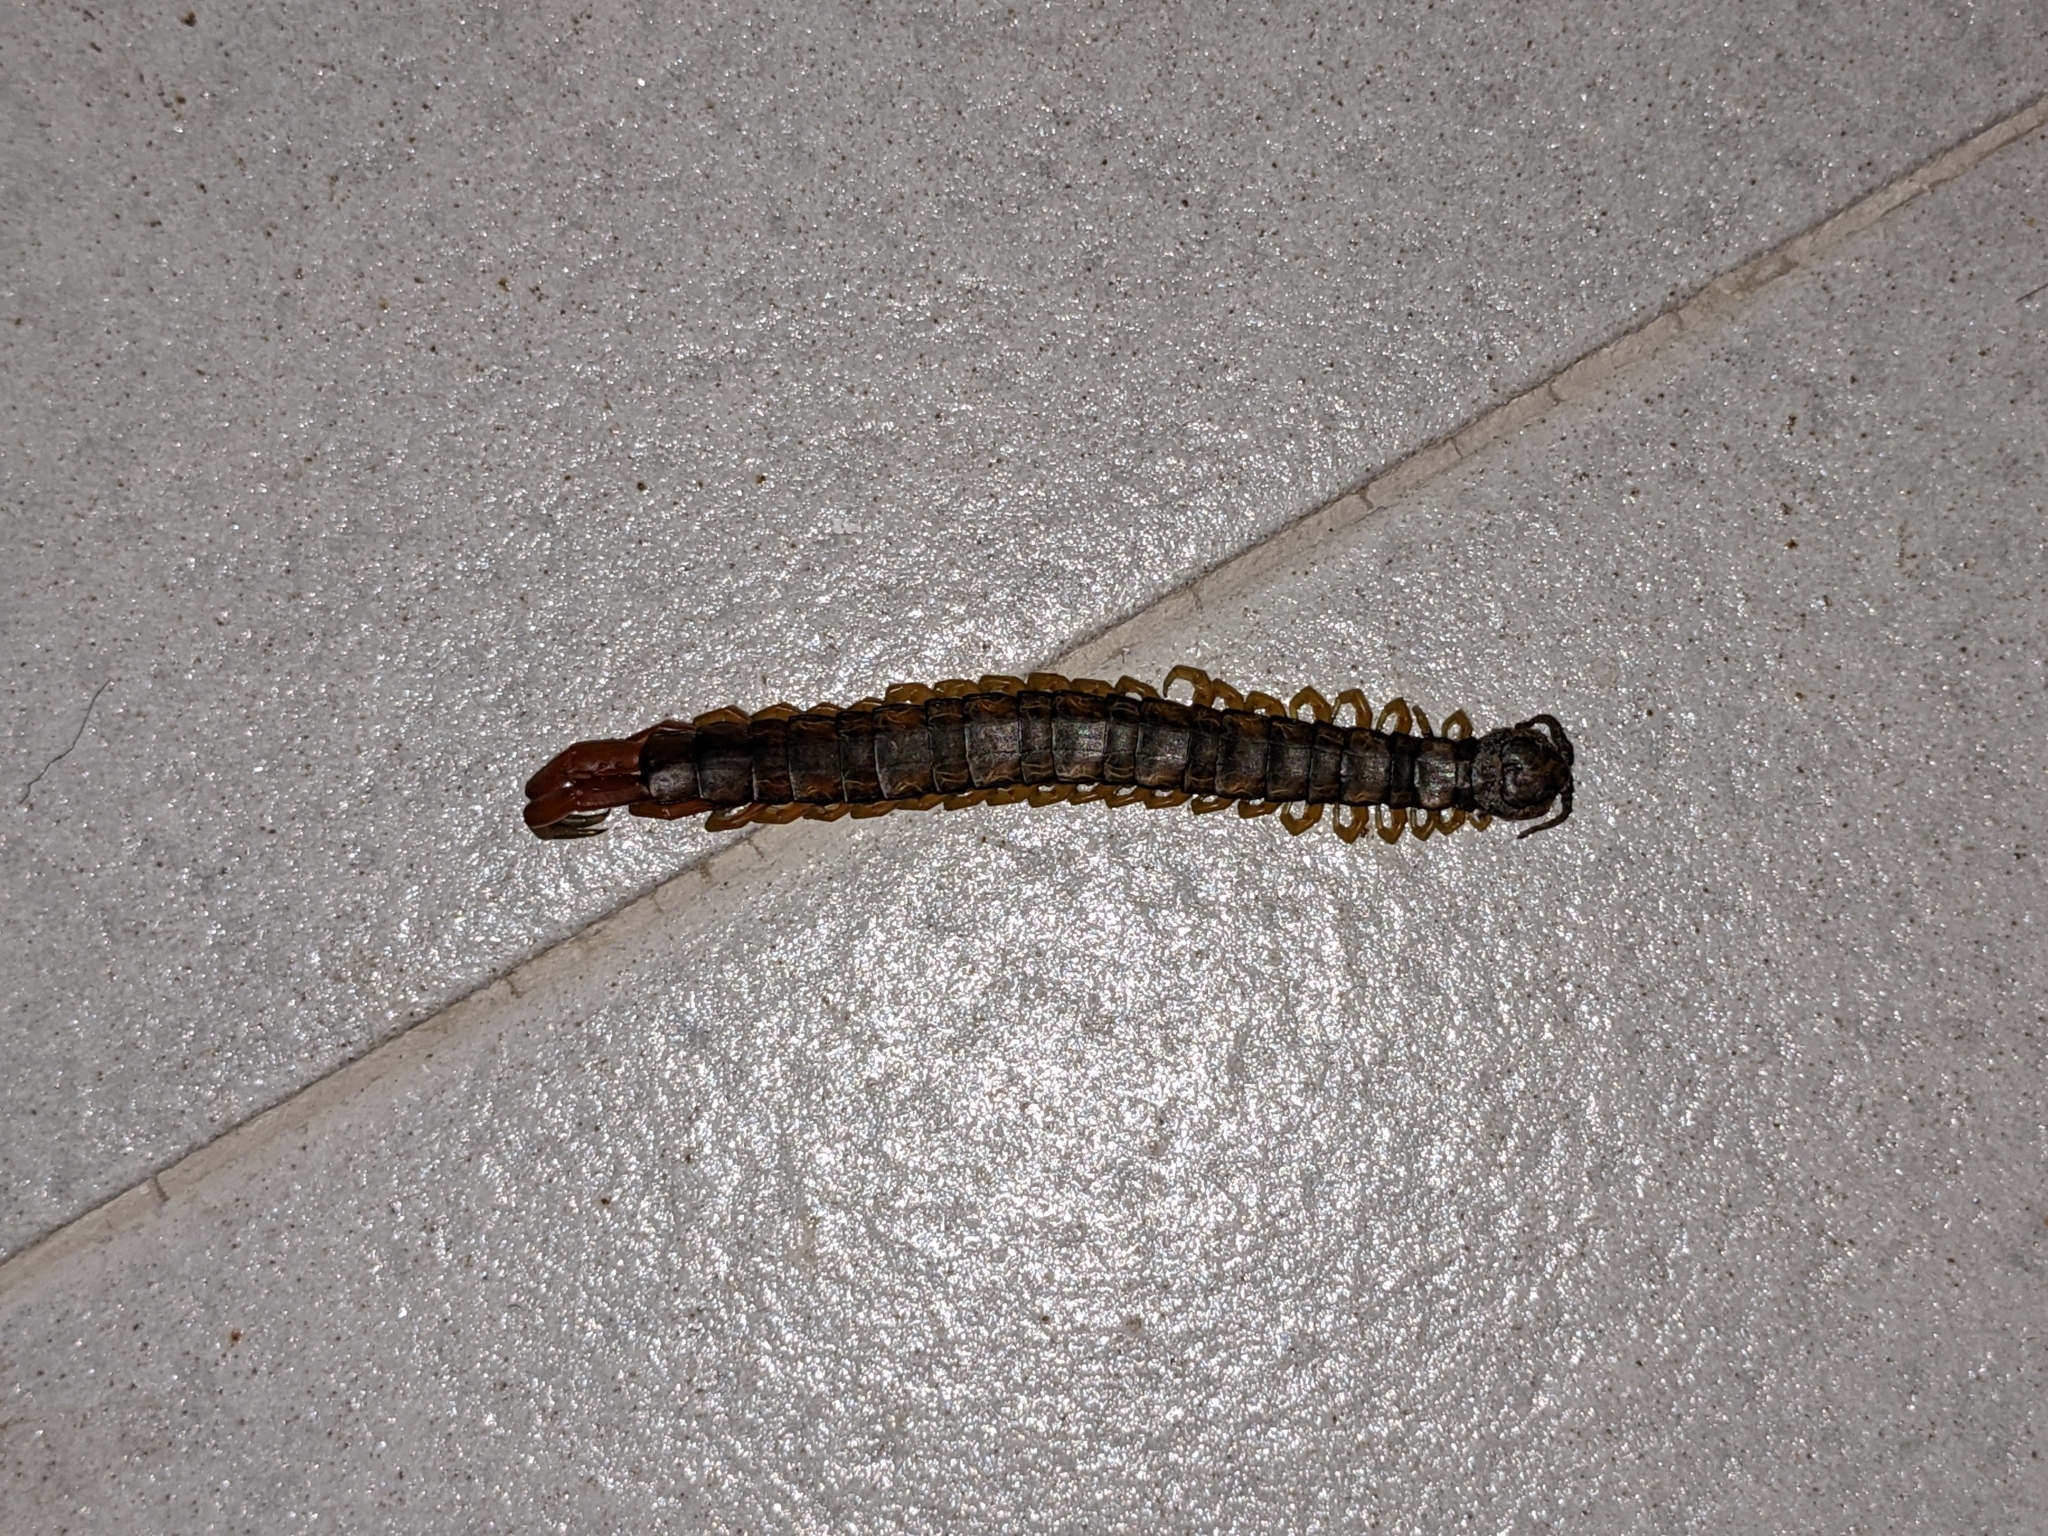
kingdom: Animalia
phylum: Arthropoda
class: Chilopoda
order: Scolopendromorpha
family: Scolopendridae
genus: Scolopendra
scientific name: Scolopendra cingulata
